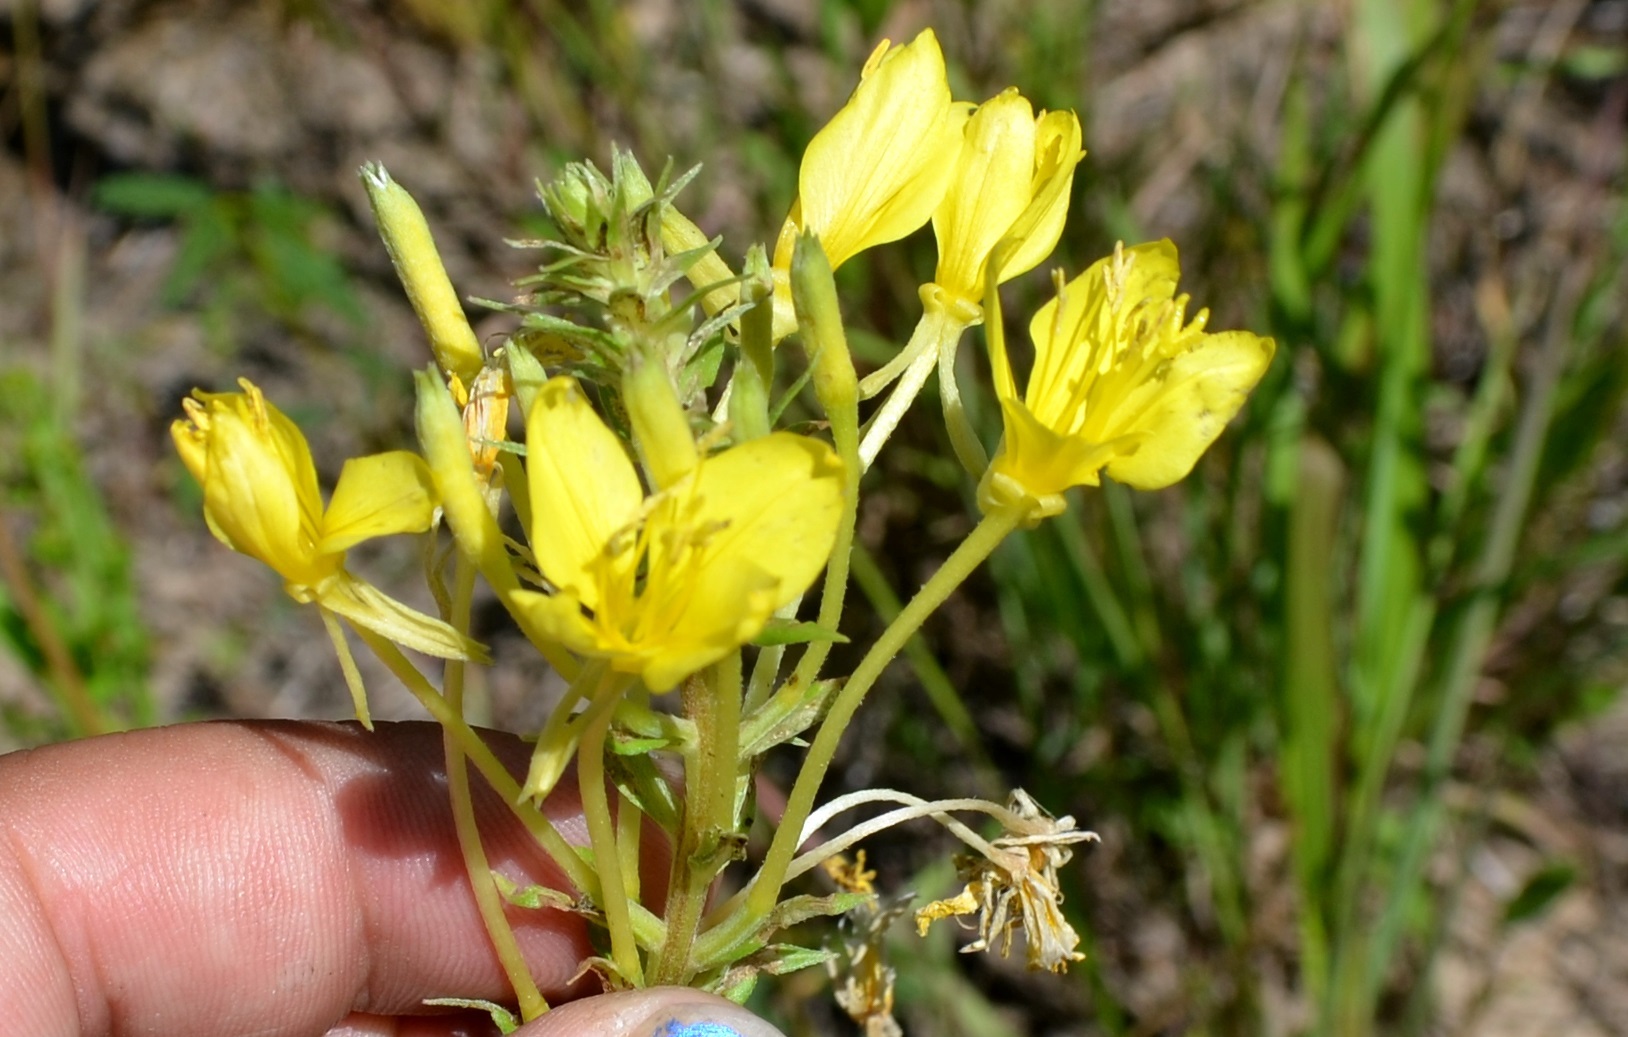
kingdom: Plantae
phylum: Tracheophyta
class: Magnoliopsida
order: Myrtales
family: Onagraceae
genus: Oenothera
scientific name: Oenothera clelandii
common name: Cleland's evening-primrose
